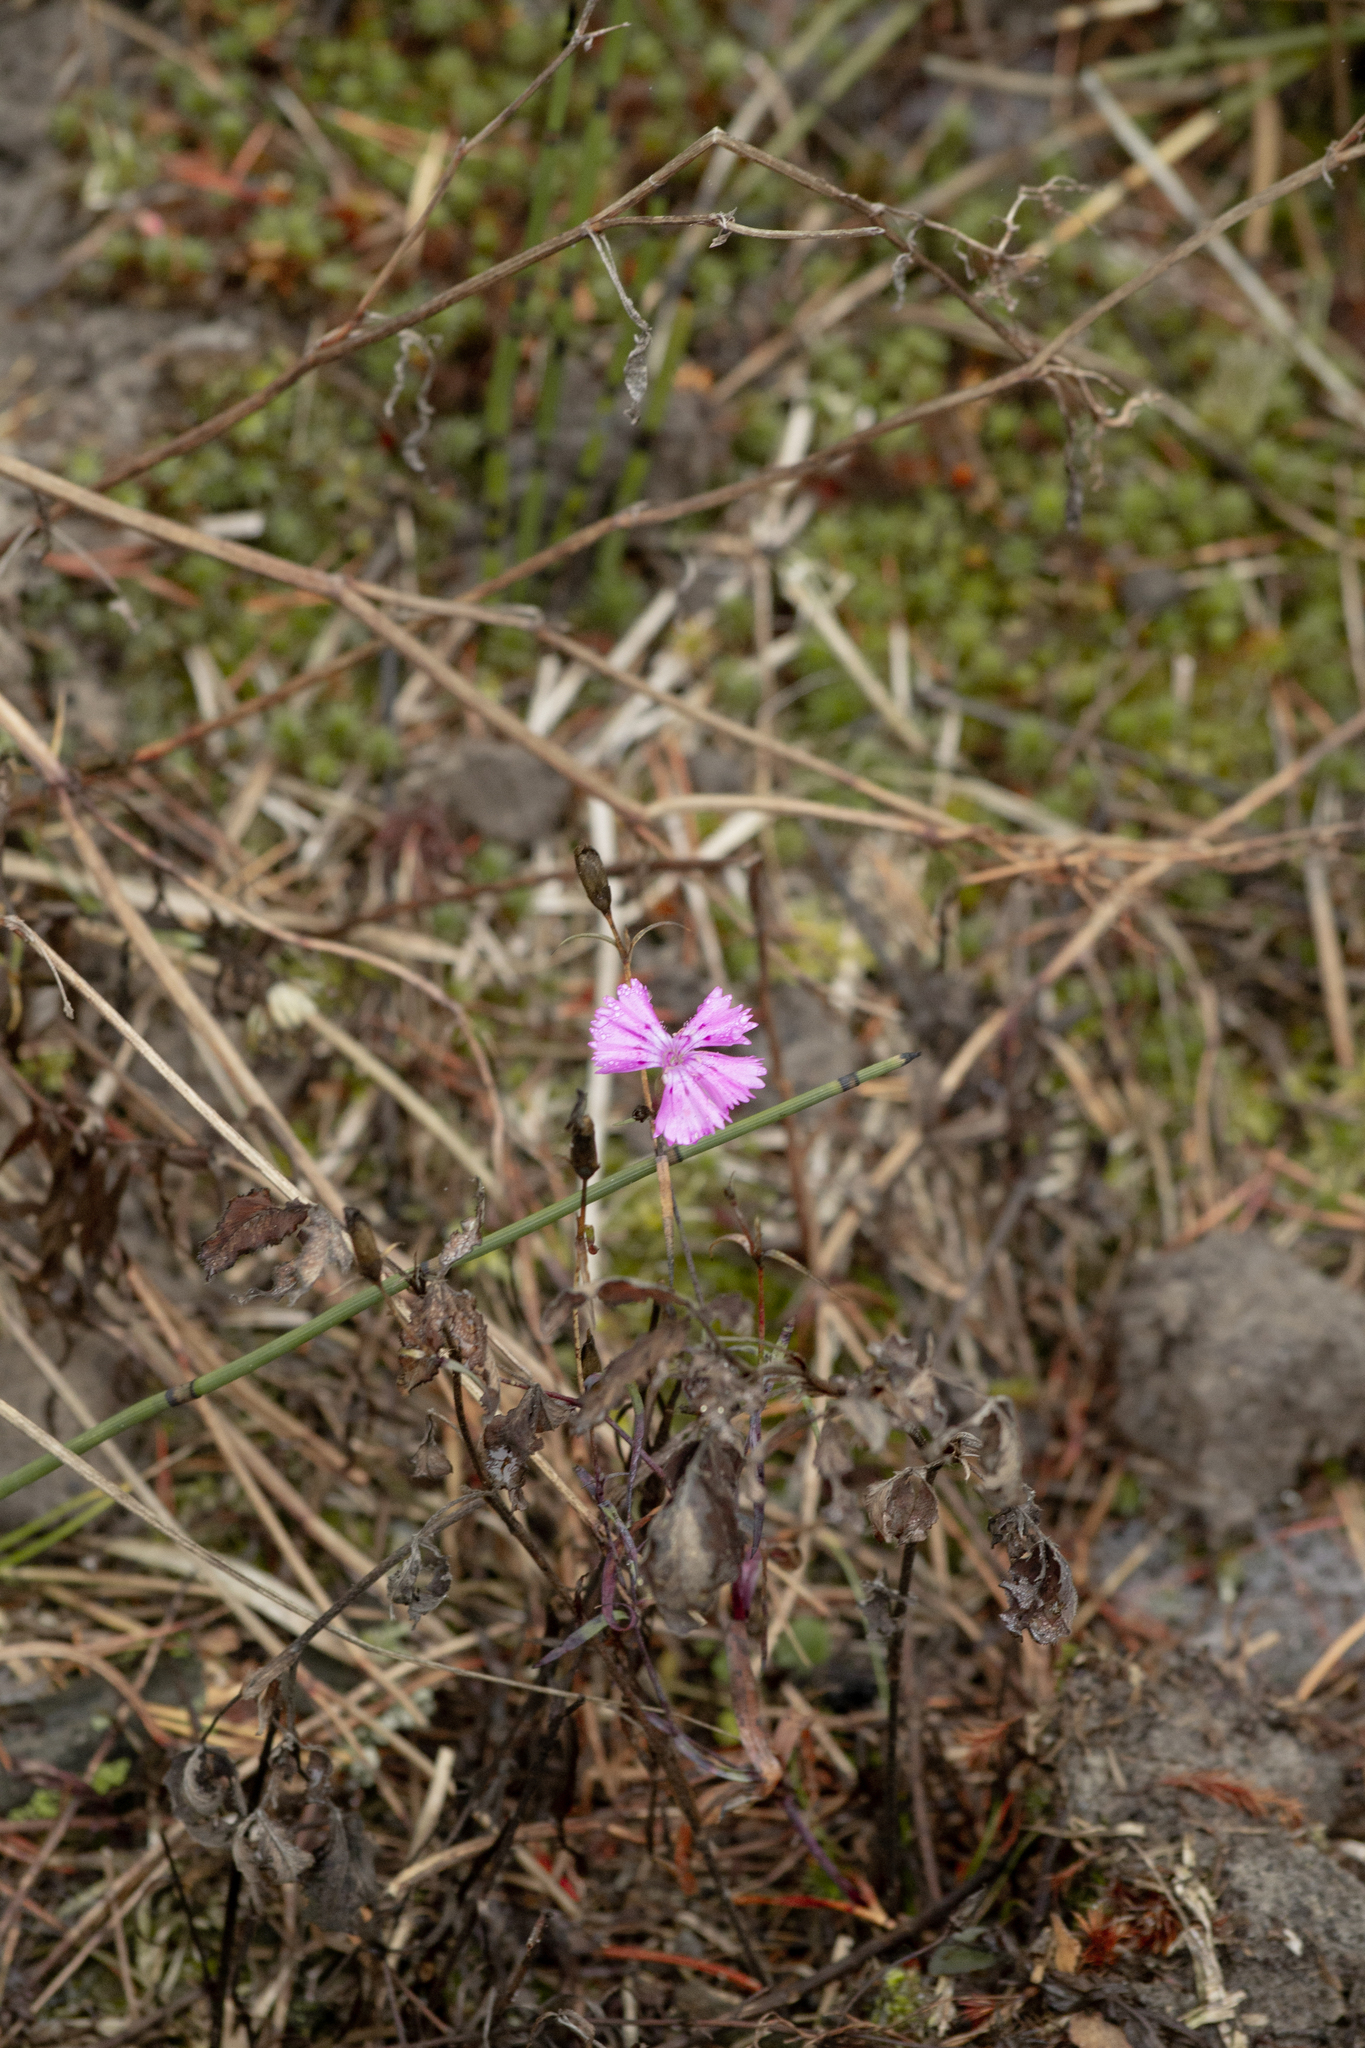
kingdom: Plantae
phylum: Tracheophyta
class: Magnoliopsida
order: Caryophyllales
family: Caryophyllaceae
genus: Dianthus
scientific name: Dianthus chinensis
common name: Rainbow pink
